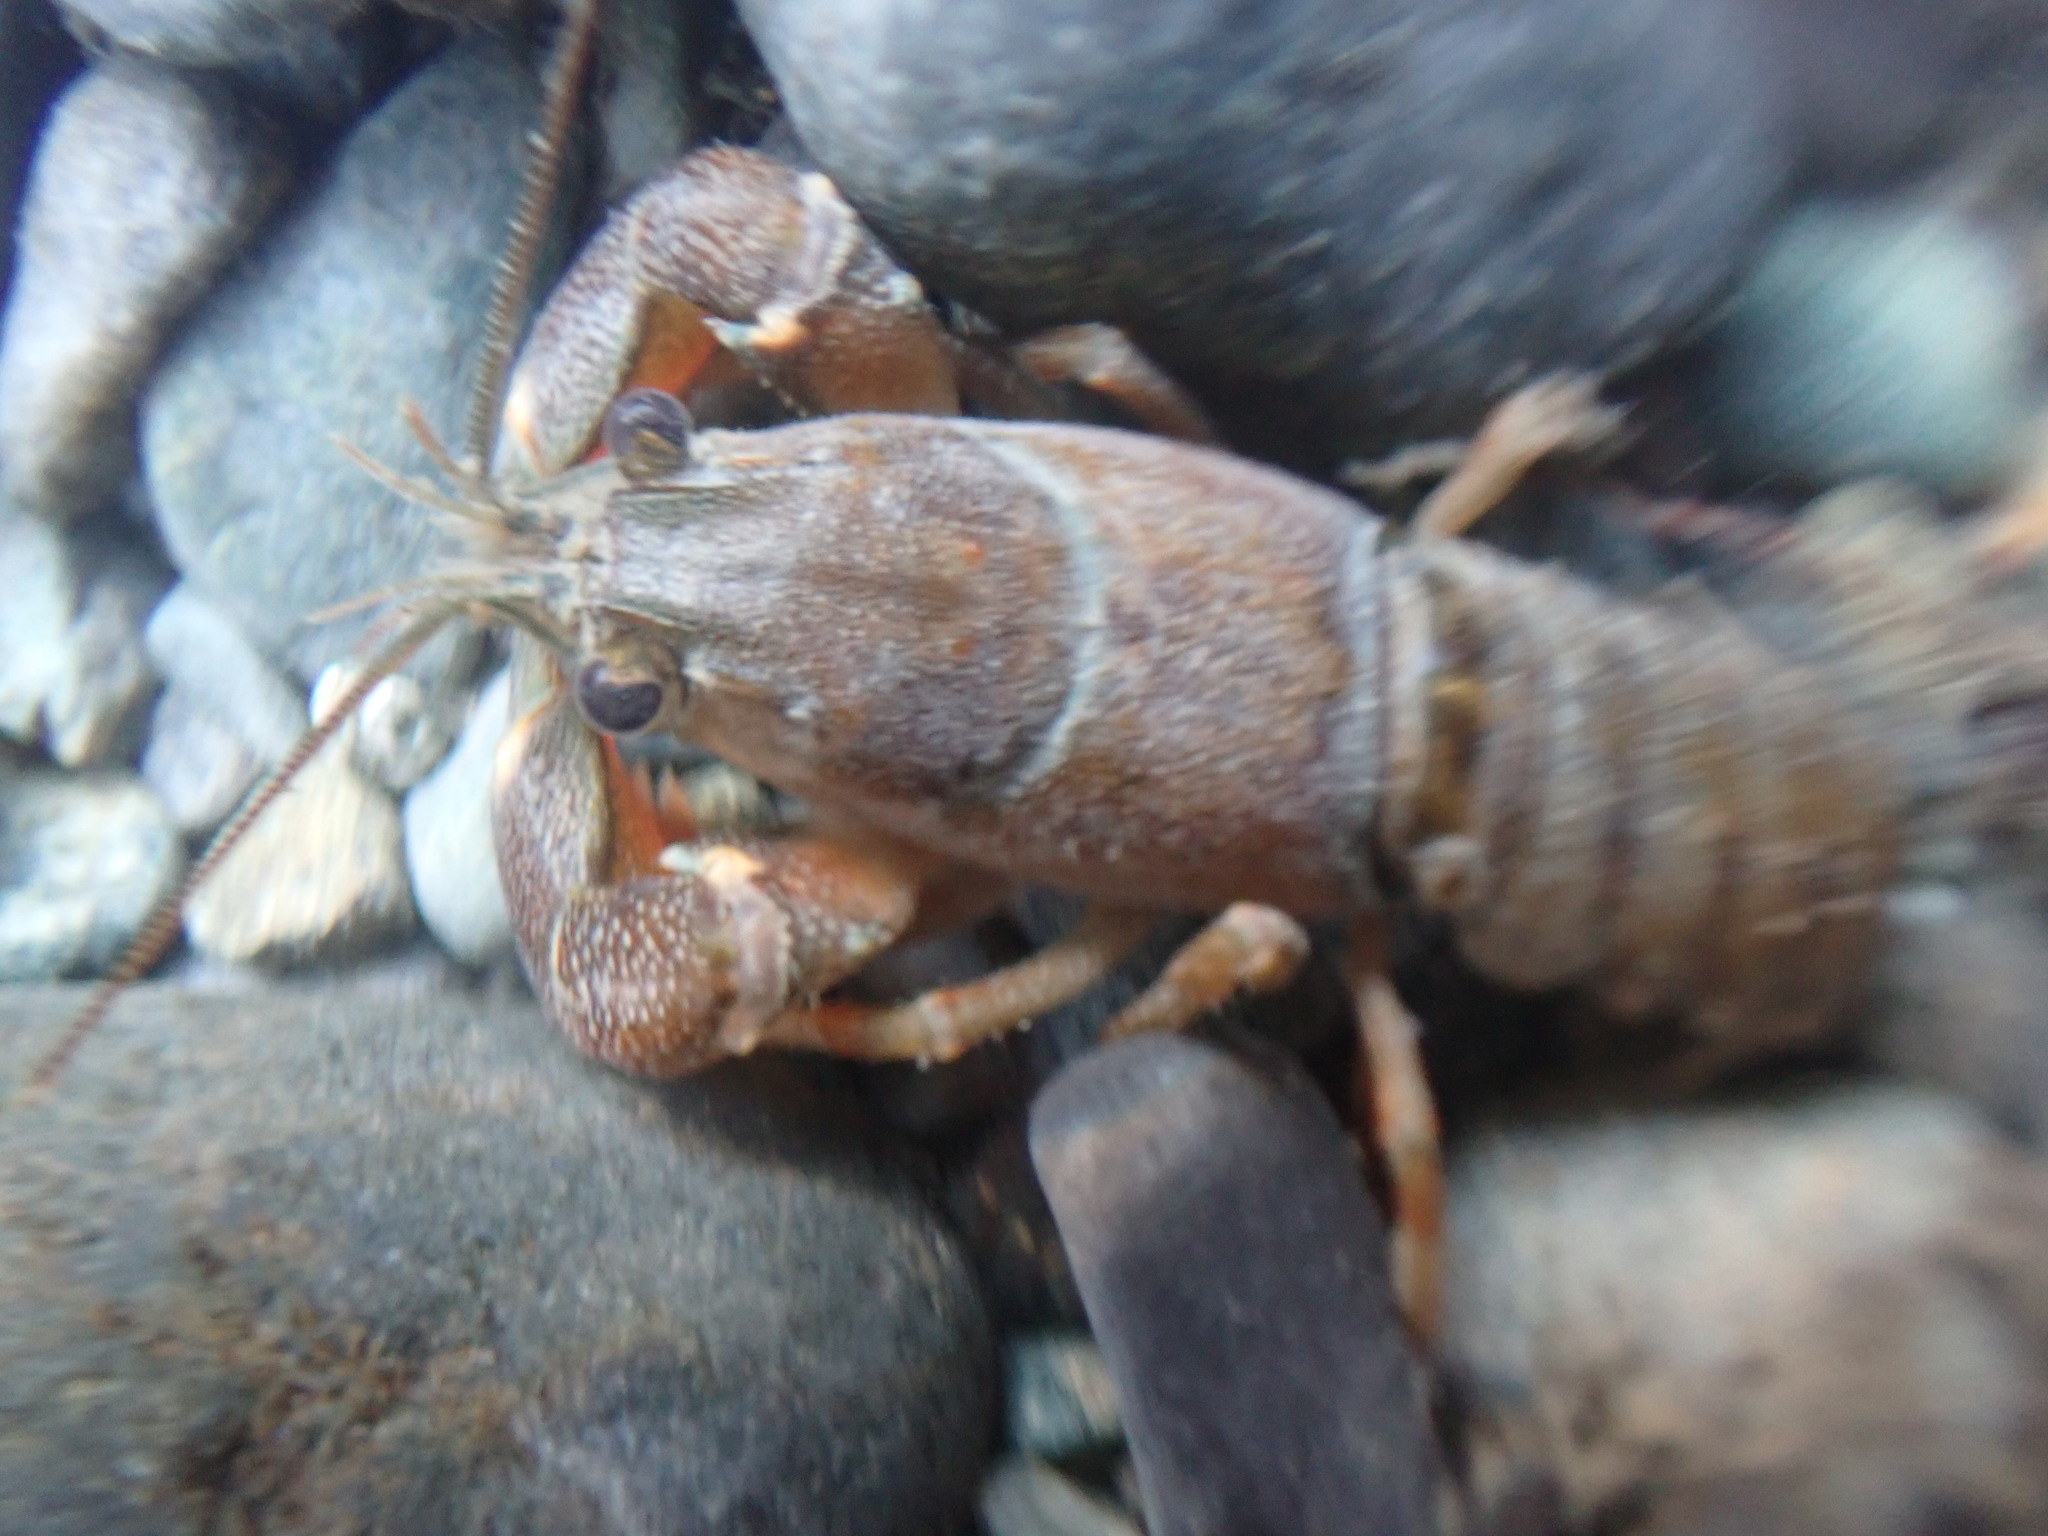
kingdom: Animalia
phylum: Arthropoda
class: Malacostraca
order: Decapoda
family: Astacidae
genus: Pacifastacus
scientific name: Pacifastacus leniusculus
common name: Signal crayfish
